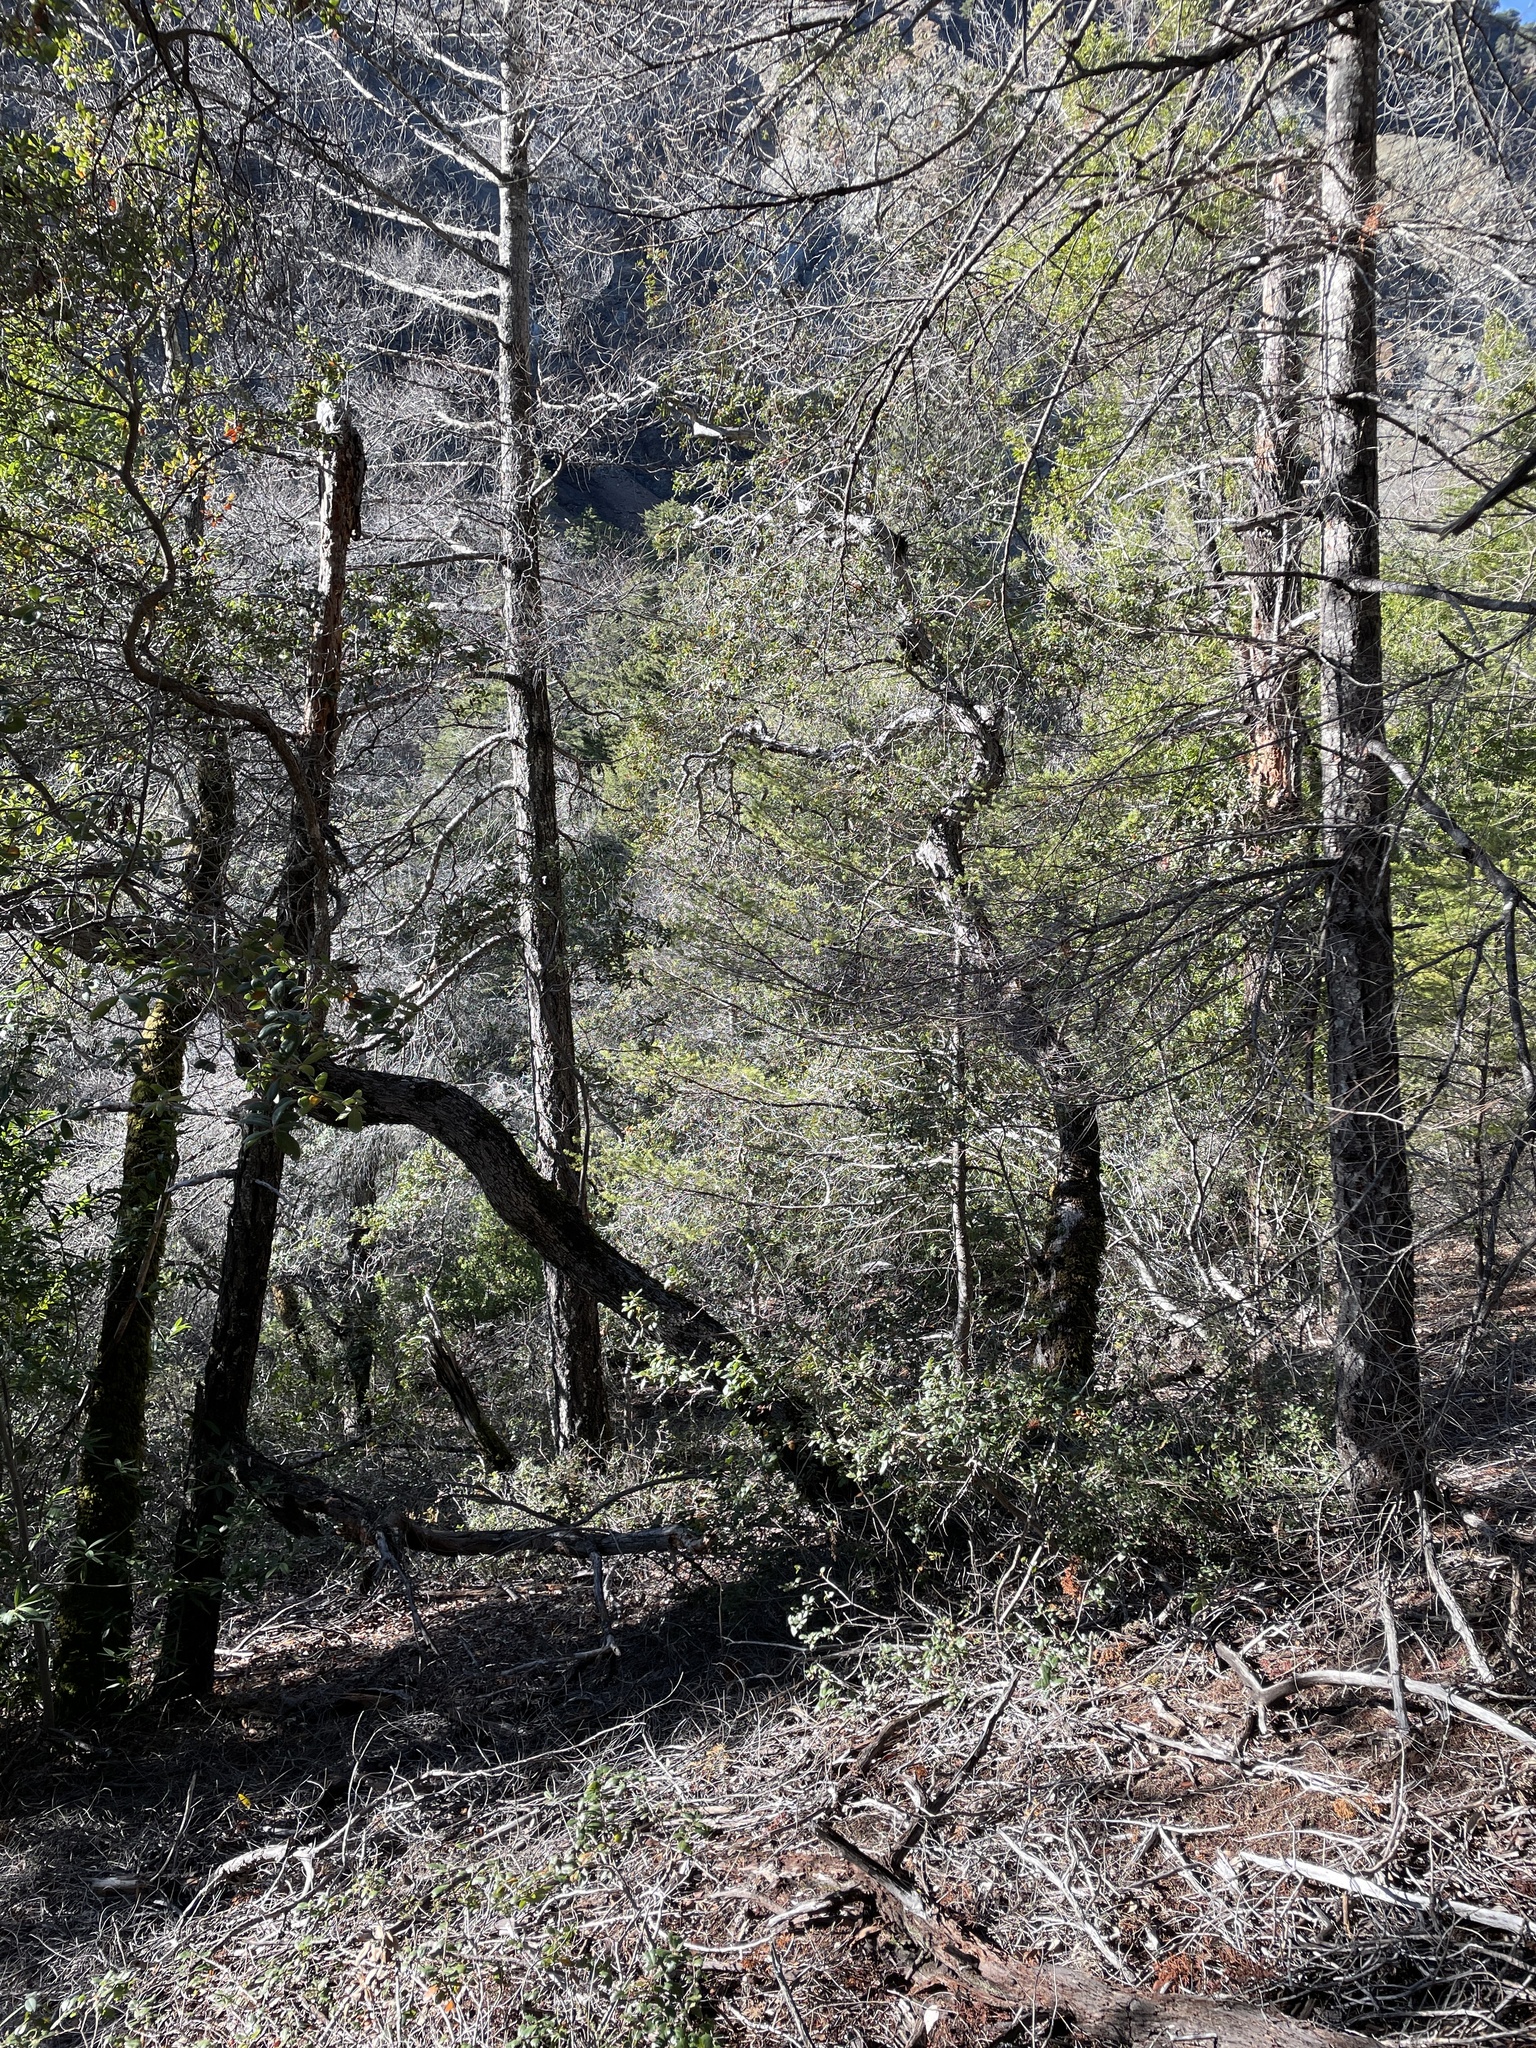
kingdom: Plantae
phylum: Tracheophyta
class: Magnoliopsida
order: Fagales
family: Fagaceae
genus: Quercus
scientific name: Quercus durata
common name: Leather oak
